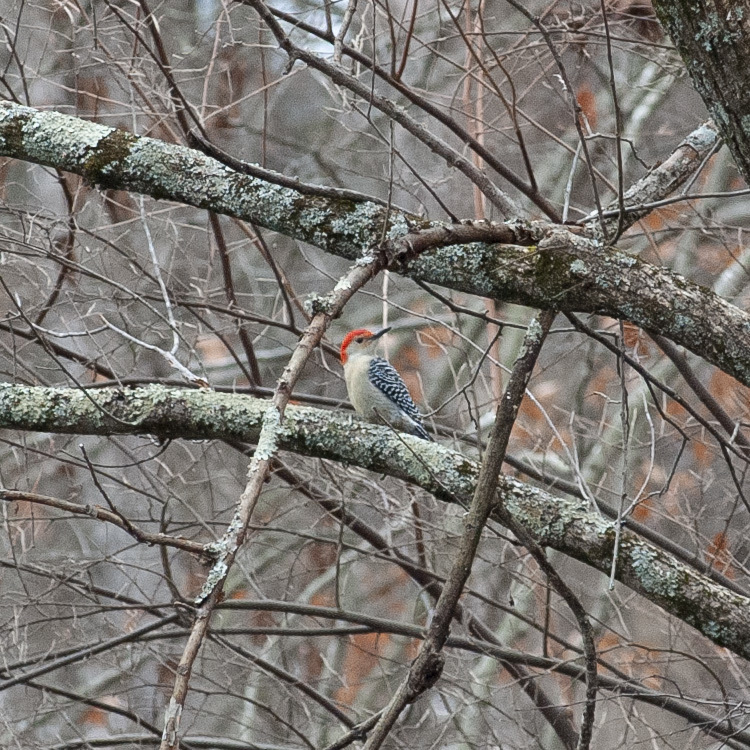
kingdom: Animalia
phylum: Chordata
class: Aves
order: Piciformes
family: Picidae
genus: Melanerpes
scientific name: Melanerpes carolinus
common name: Red-bellied woodpecker
